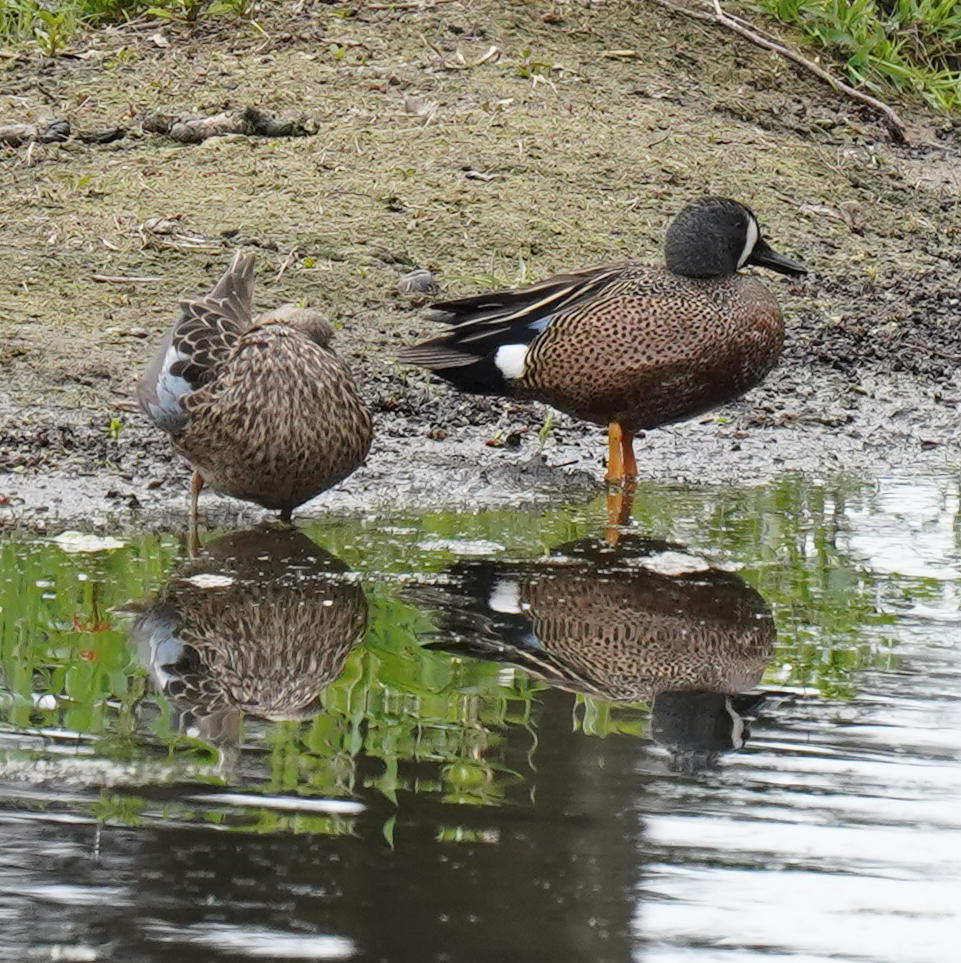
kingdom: Animalia
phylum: Chordata
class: Aves
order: Anseriformes
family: Anatidae
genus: Spatula
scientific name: Spatula discors
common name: Blue-winged teal
